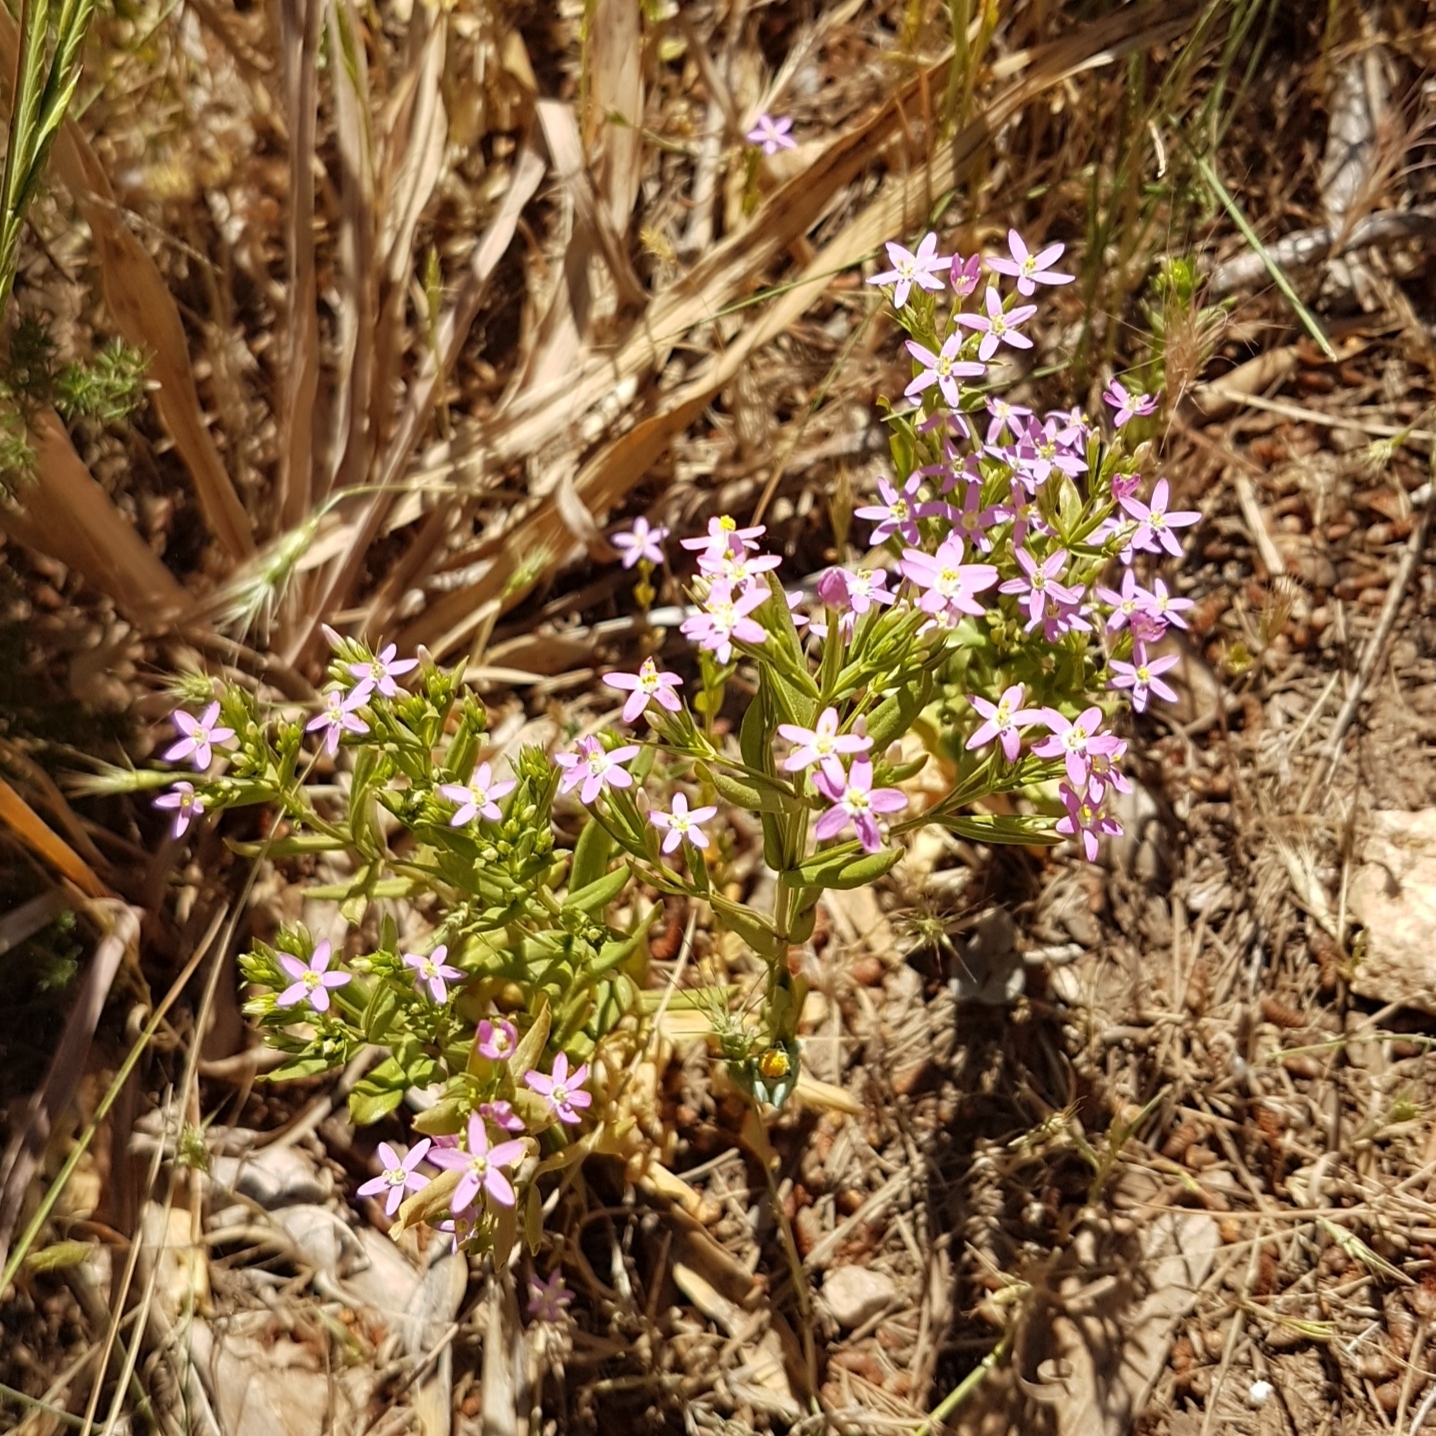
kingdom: Plantae
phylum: Tracheophyta
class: Magnoliopsida
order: Gentianales
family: Gentianaceae
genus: Centaurium
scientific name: Centaurium tenuiflorum
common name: Slender centaury
